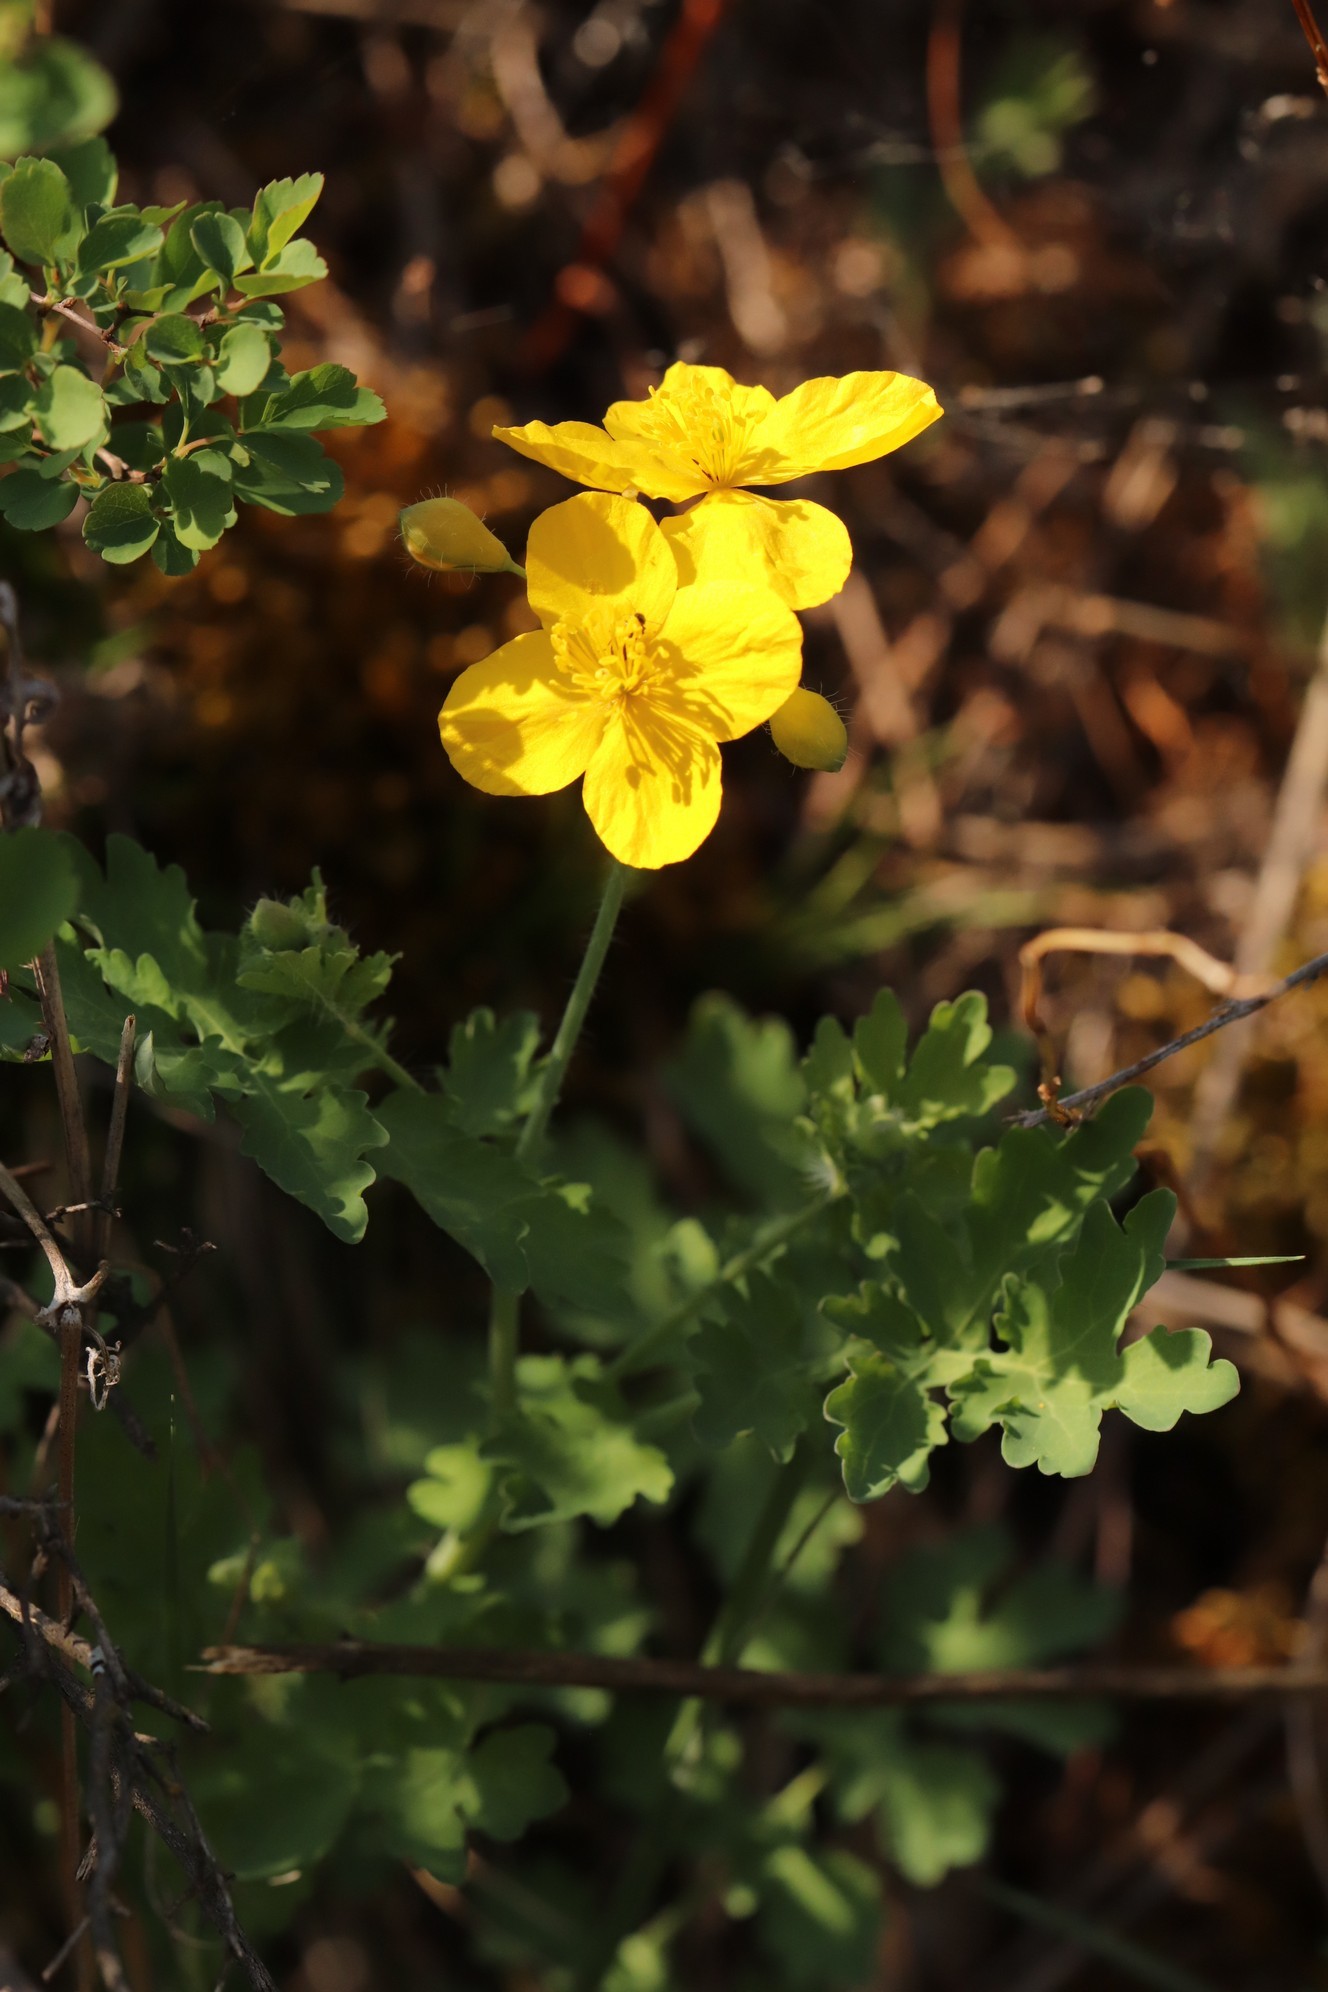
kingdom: Plantae
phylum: Tracheophyta
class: Magnoliopsida
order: Ranunculales
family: Papaveraceae
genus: Chelidonium
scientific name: Chelidonium majus
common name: Greater celandine
